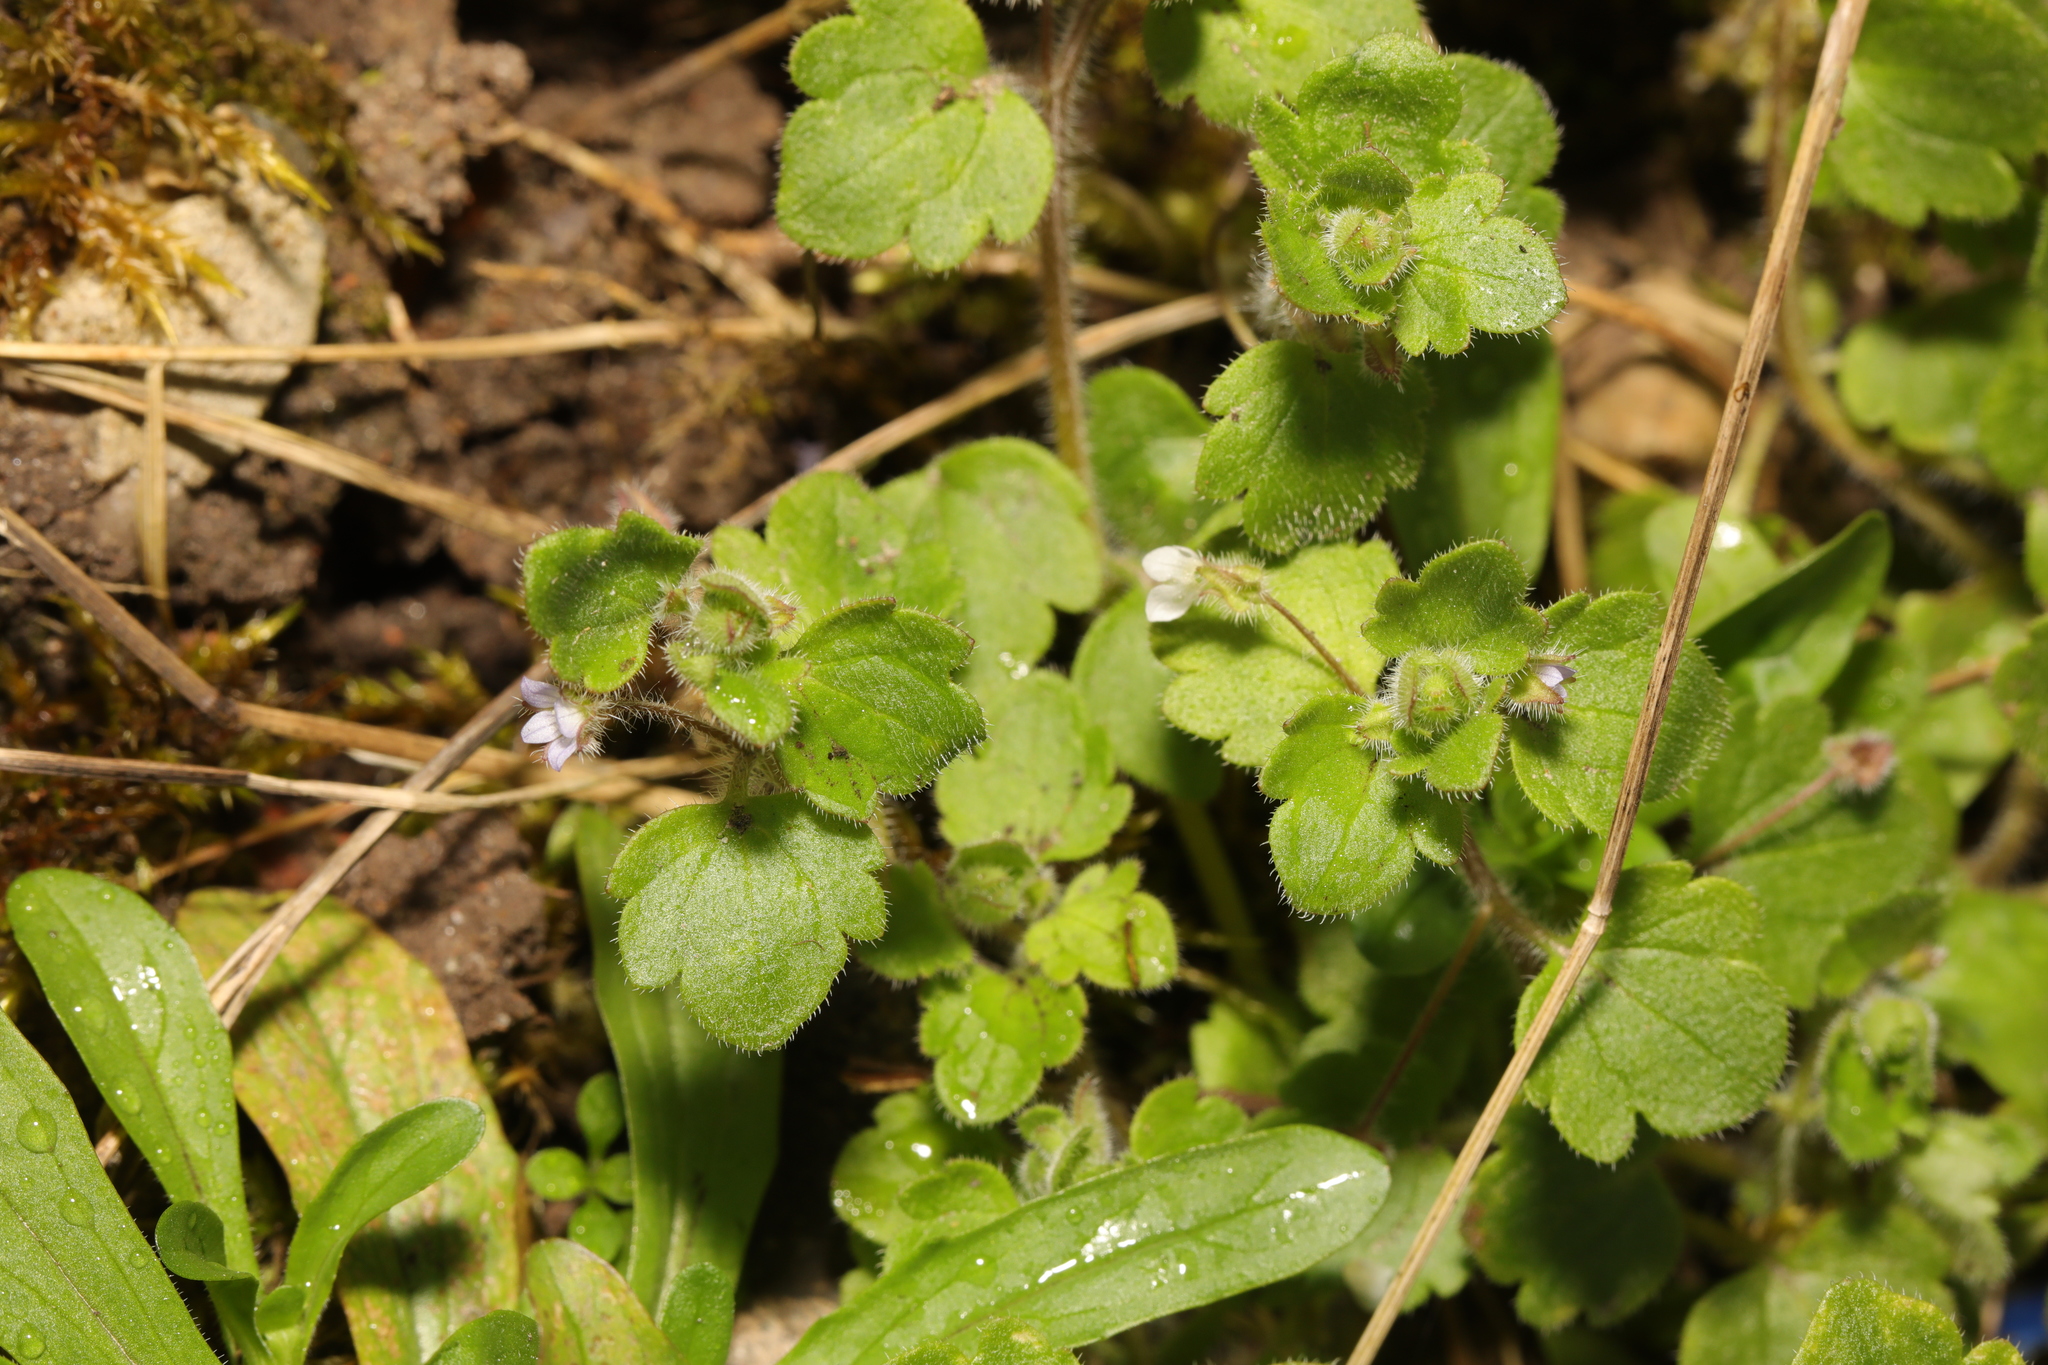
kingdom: Plantae
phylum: Tracheophyta
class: Magnoliopsida
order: Lamiales
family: Plantaginaceae
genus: Veronica
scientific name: Veronica hederifolia
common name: Ivy-leaved speedwell
